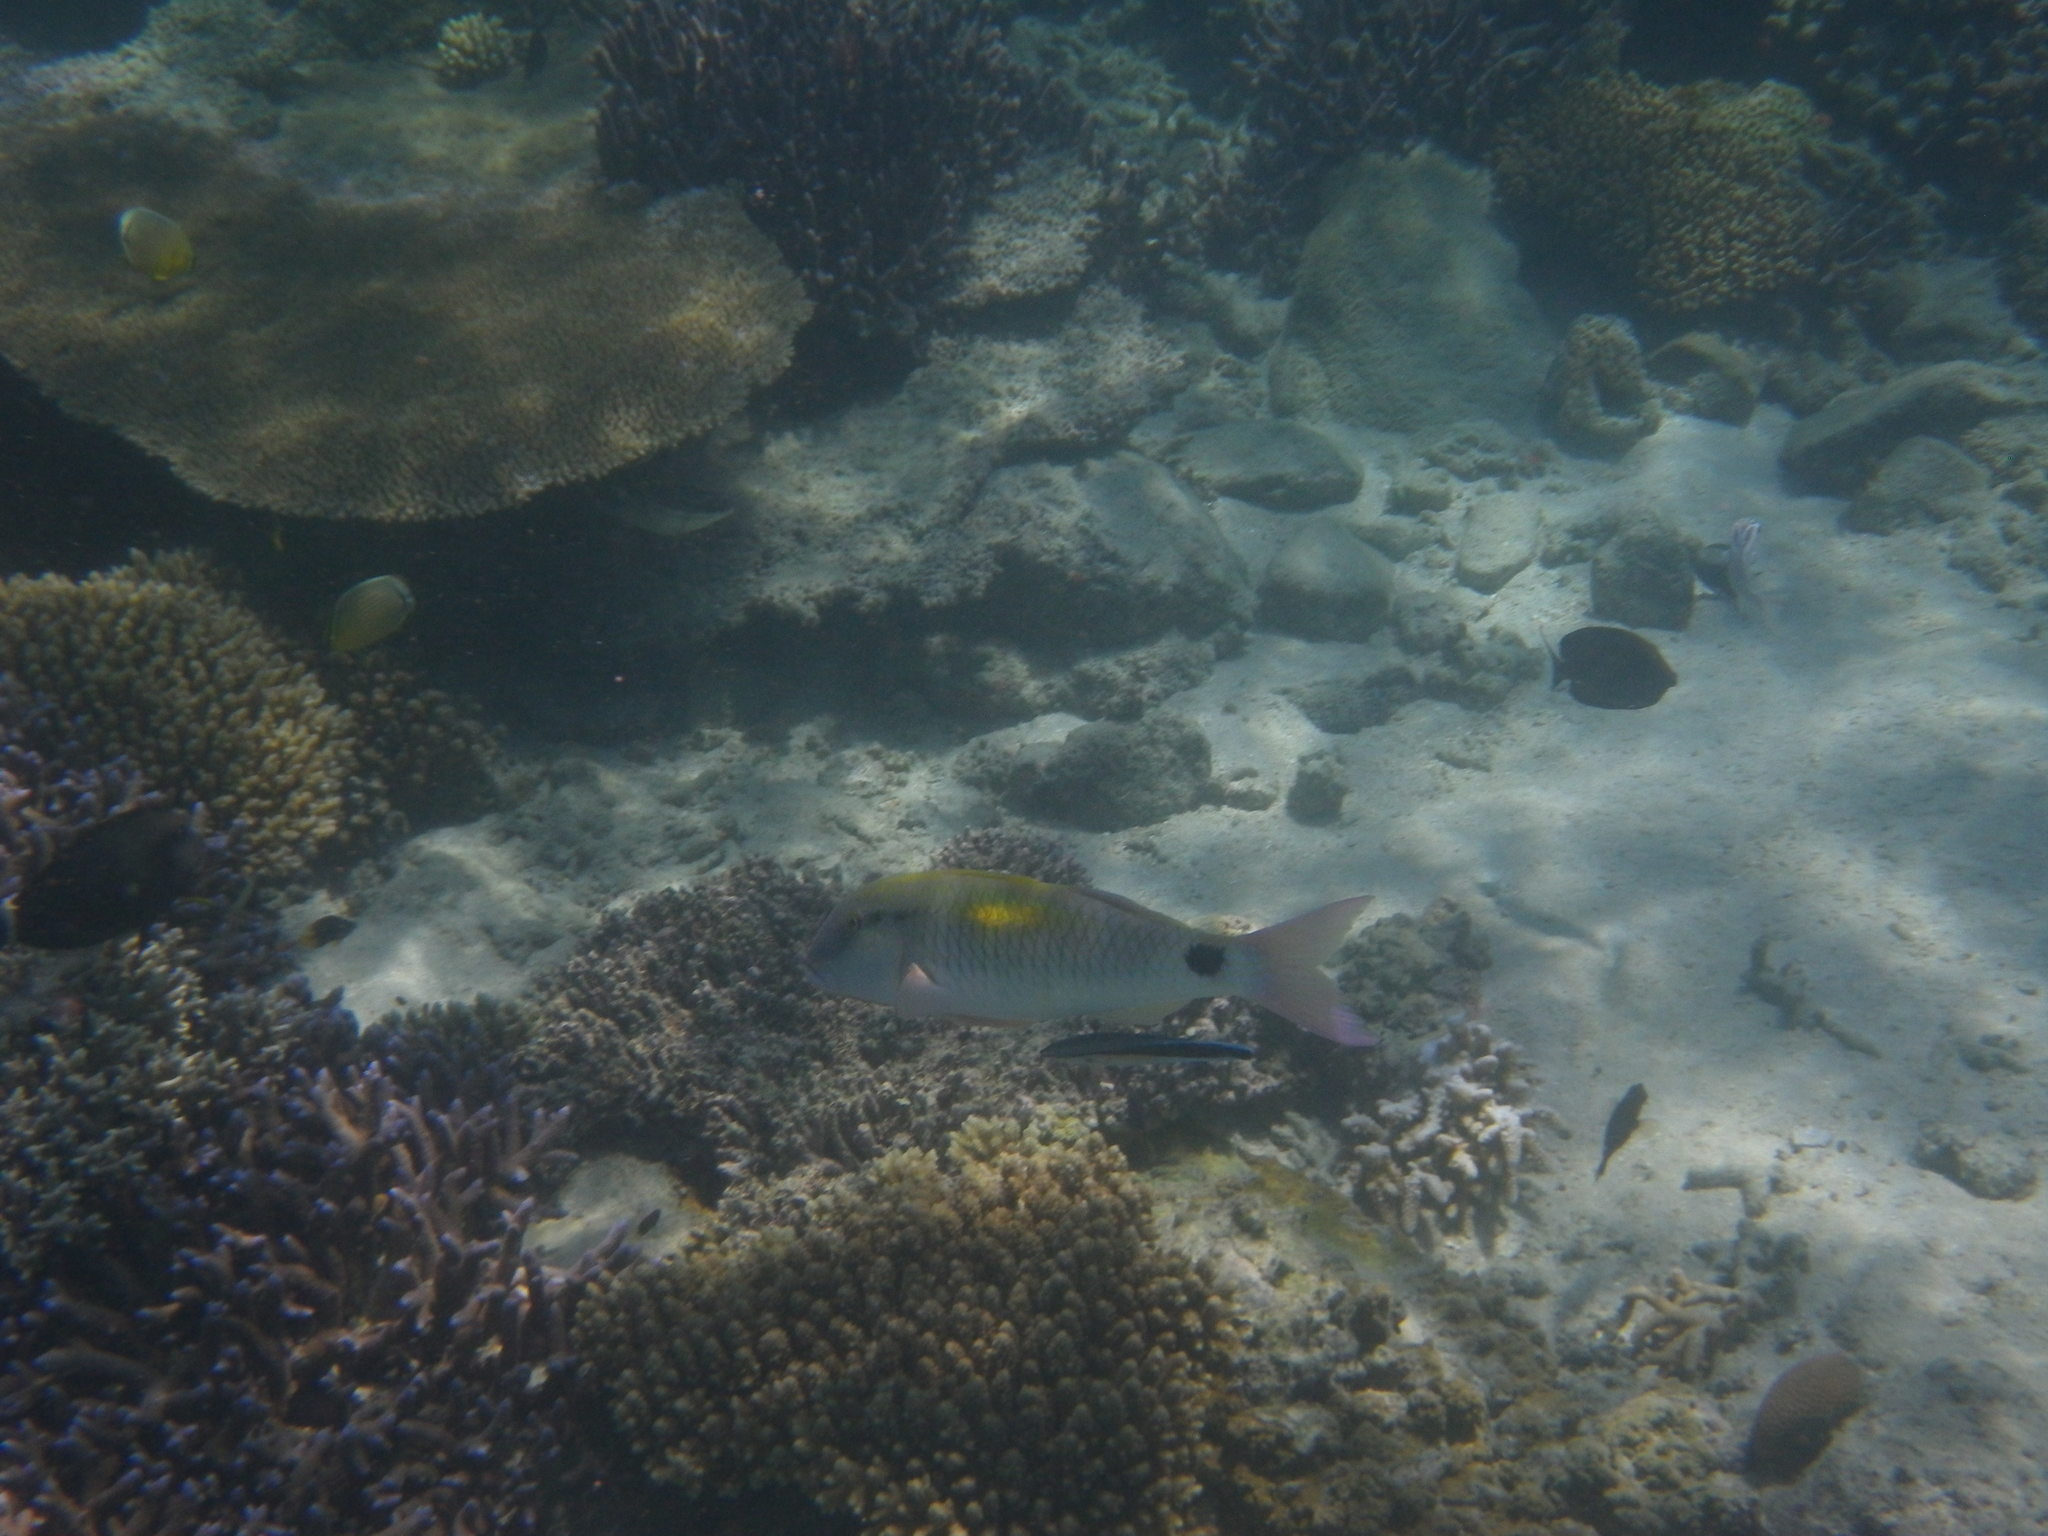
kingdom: Animalia
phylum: Chordata
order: Perciformes
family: Mullidae
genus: Parupeneus
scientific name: Parupeneus indicus
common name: Indian goatfish
